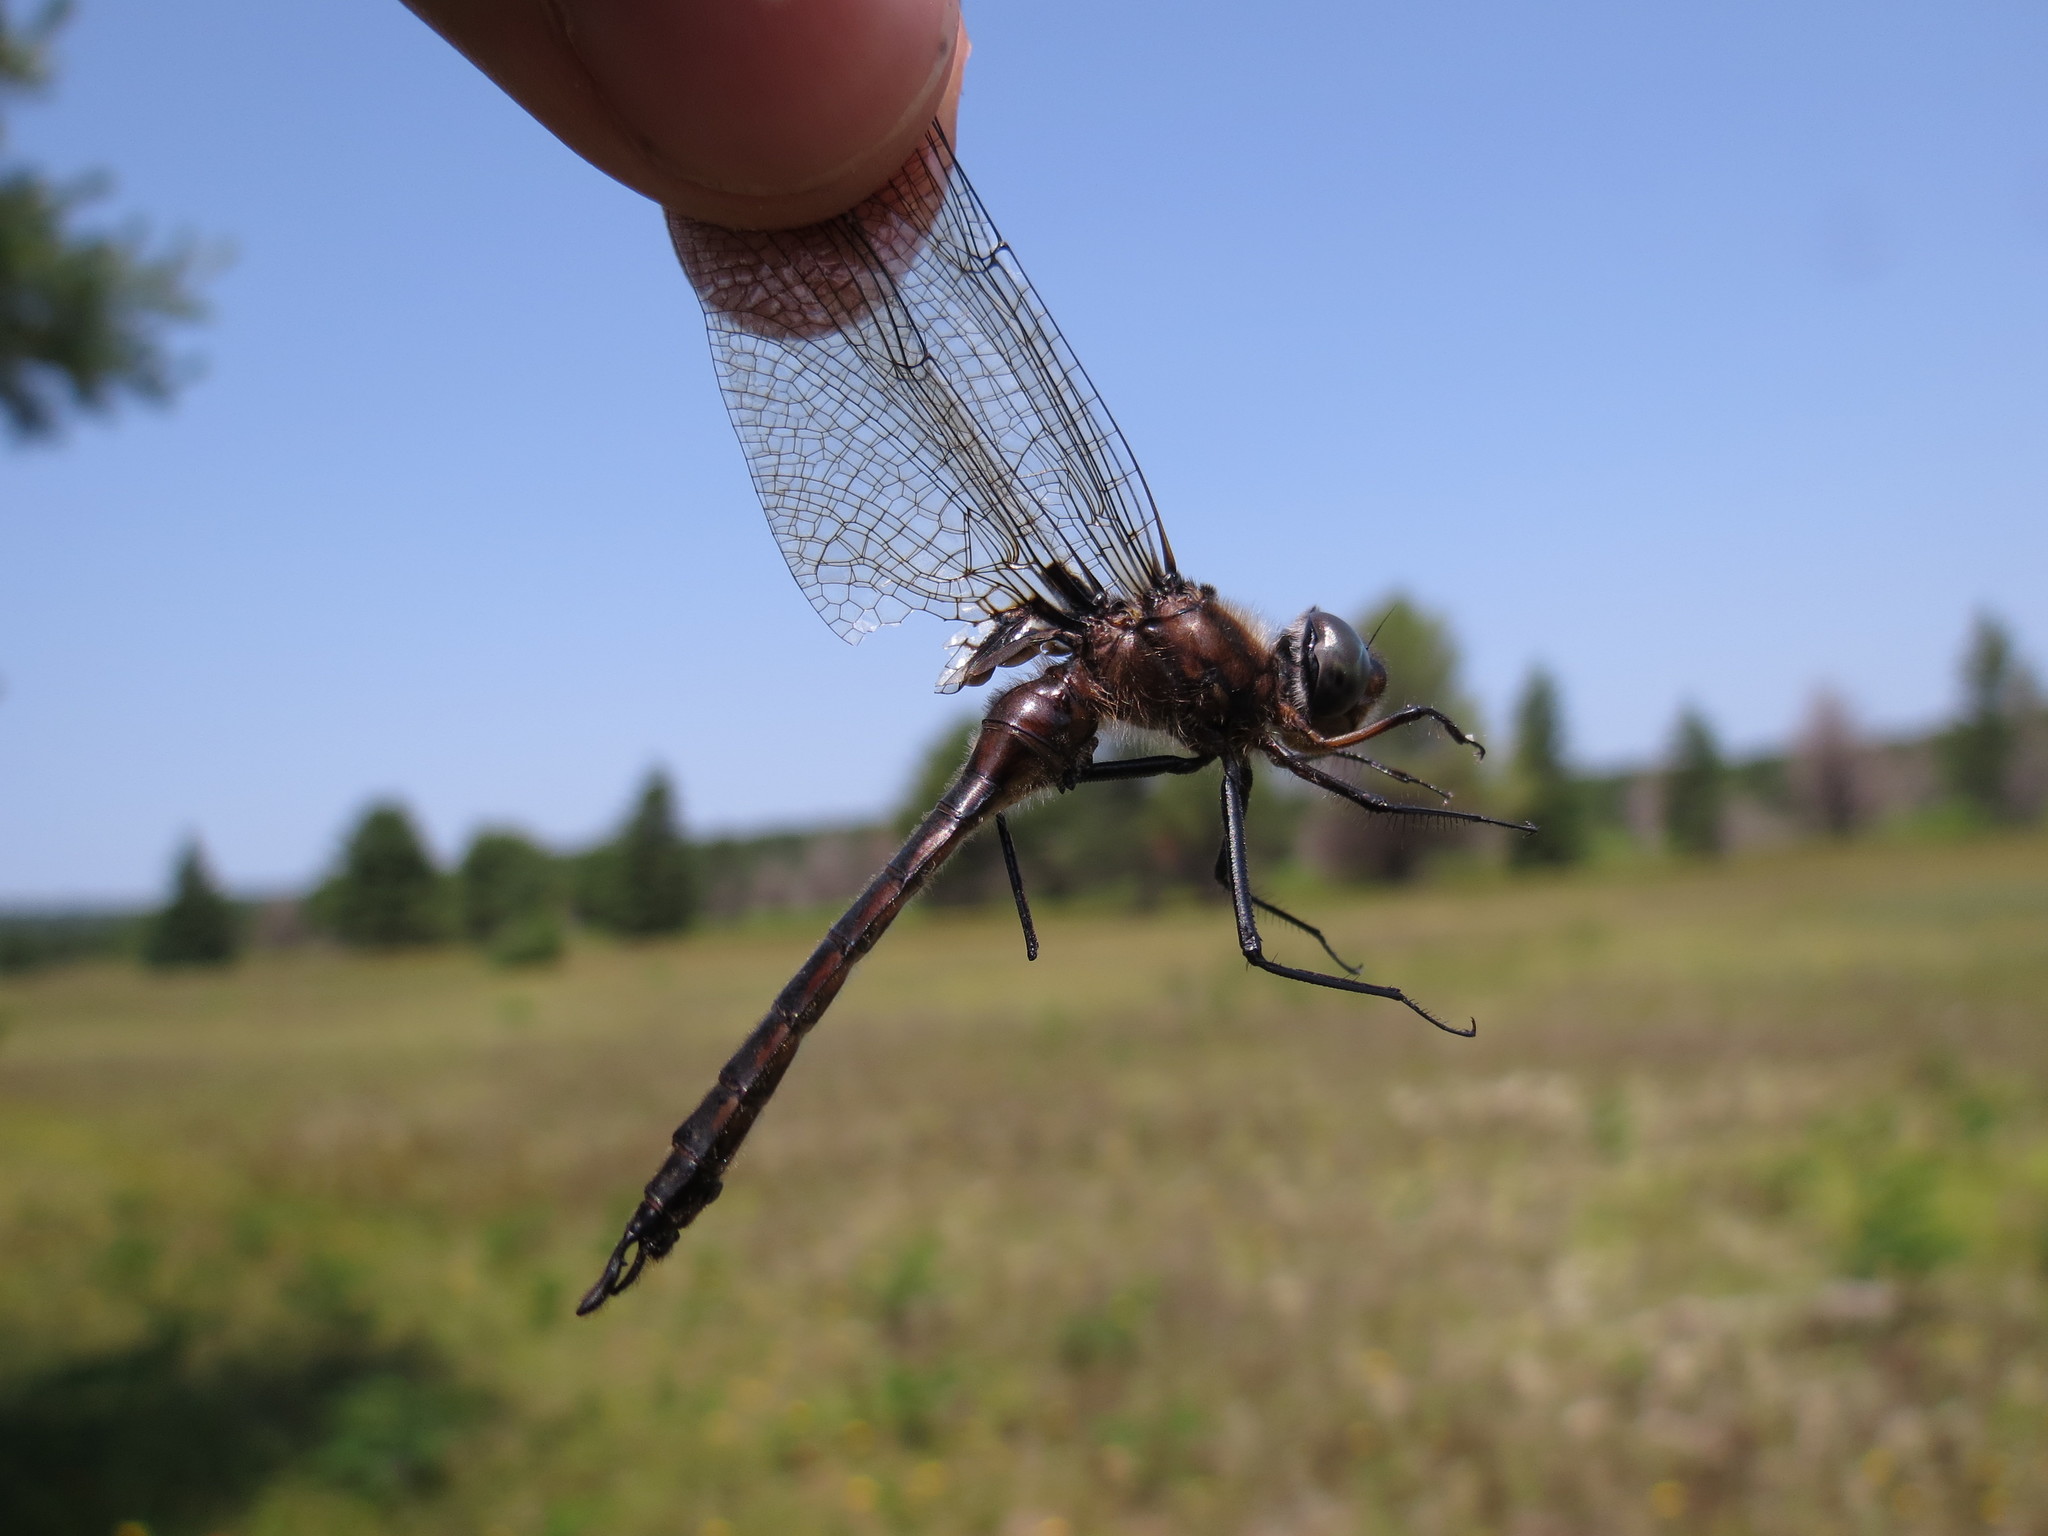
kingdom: Animalia
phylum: Arthropoda
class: Insecta
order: Odonata
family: Corduliidae
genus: Epitheca
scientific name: Epitheca spinigera
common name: Spiny baskettail
